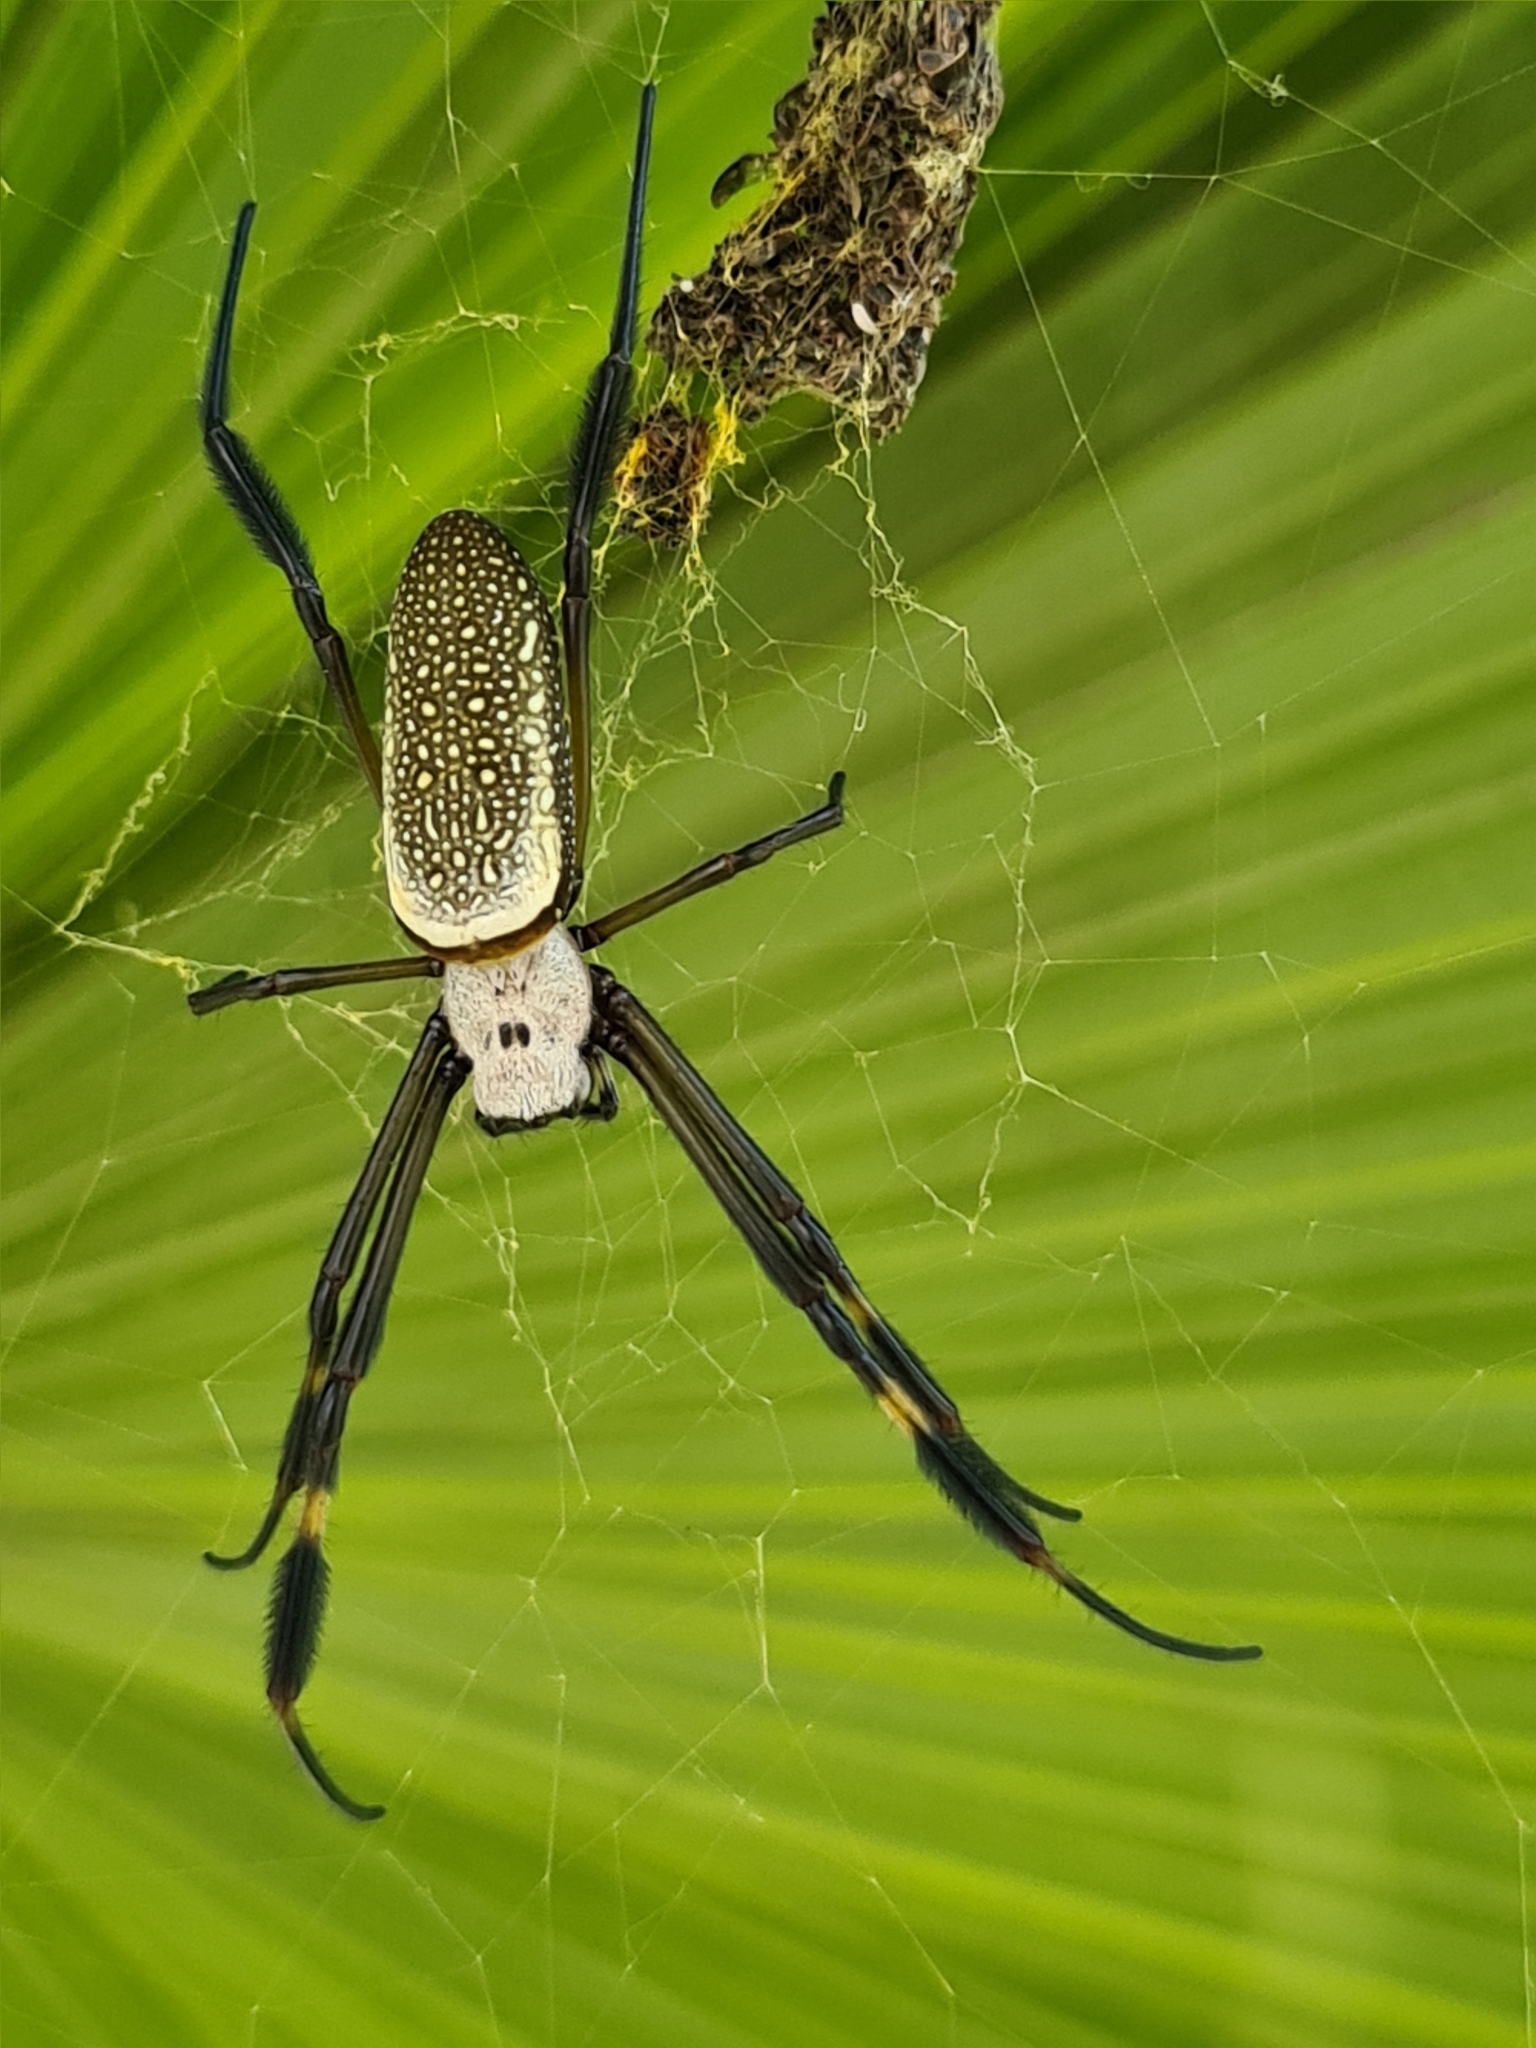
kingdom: Animalia
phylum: Arthropoda
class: Arachnida
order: Araneae
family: Araneidae
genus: Trichonephila
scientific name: Trichonephila clavipes
